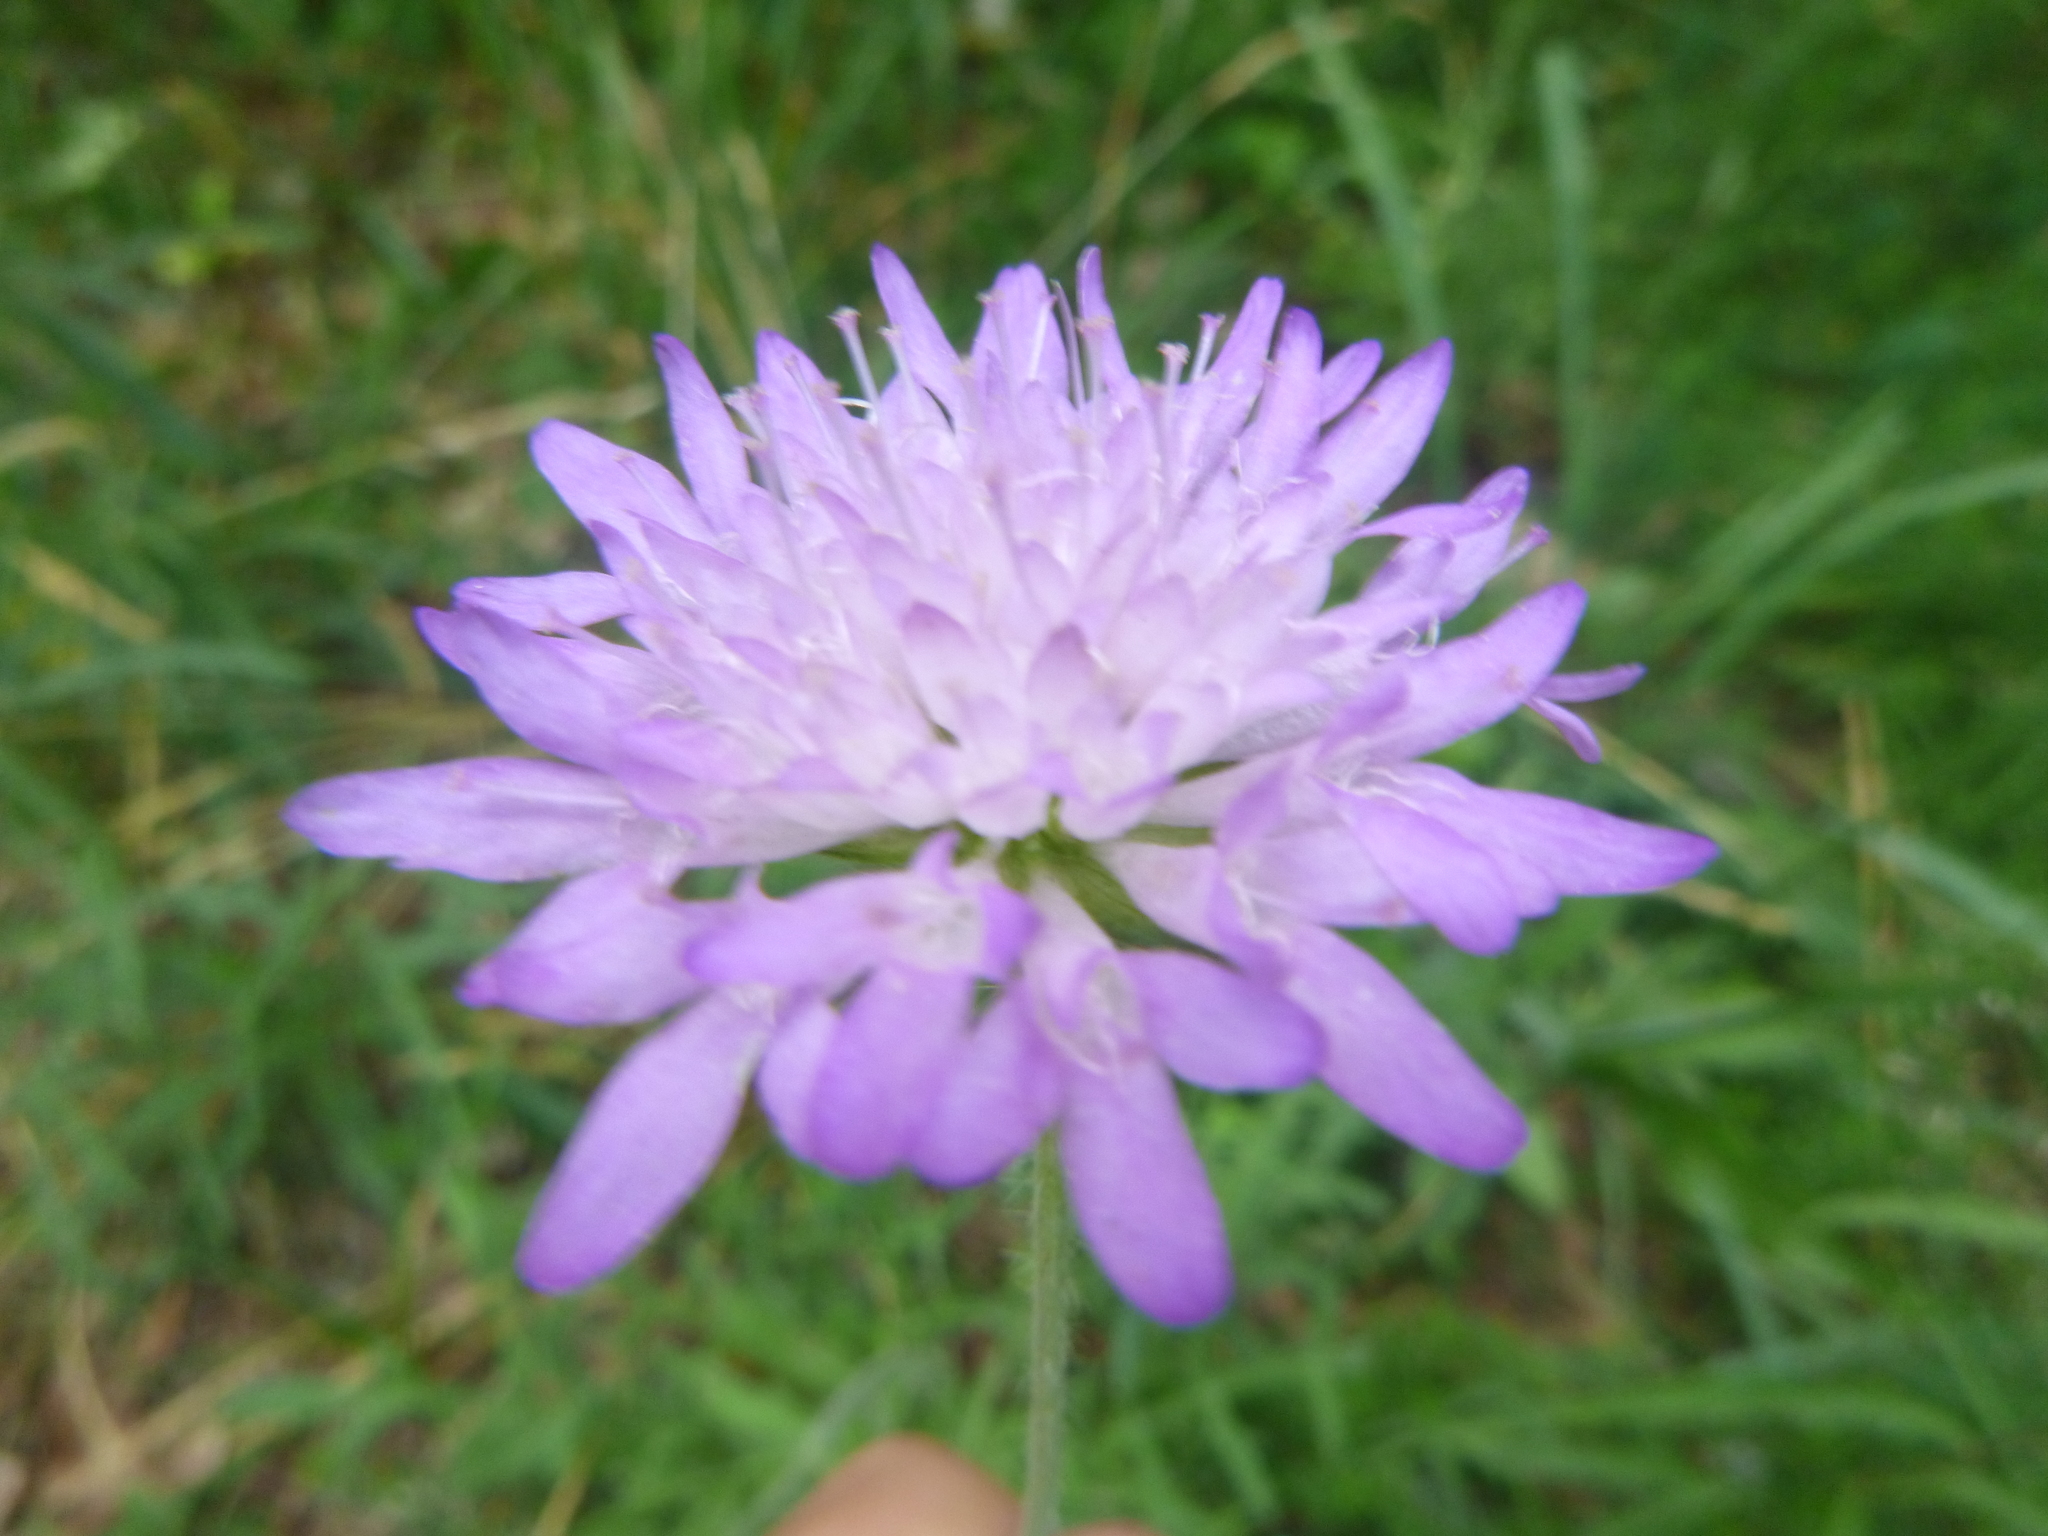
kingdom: Plantae
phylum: Tracheophyta
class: Magnoliopsida
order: Dipsacales
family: Caprifoliaceae
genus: Knautia
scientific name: Knautia arvensis
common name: Field scabiosa
